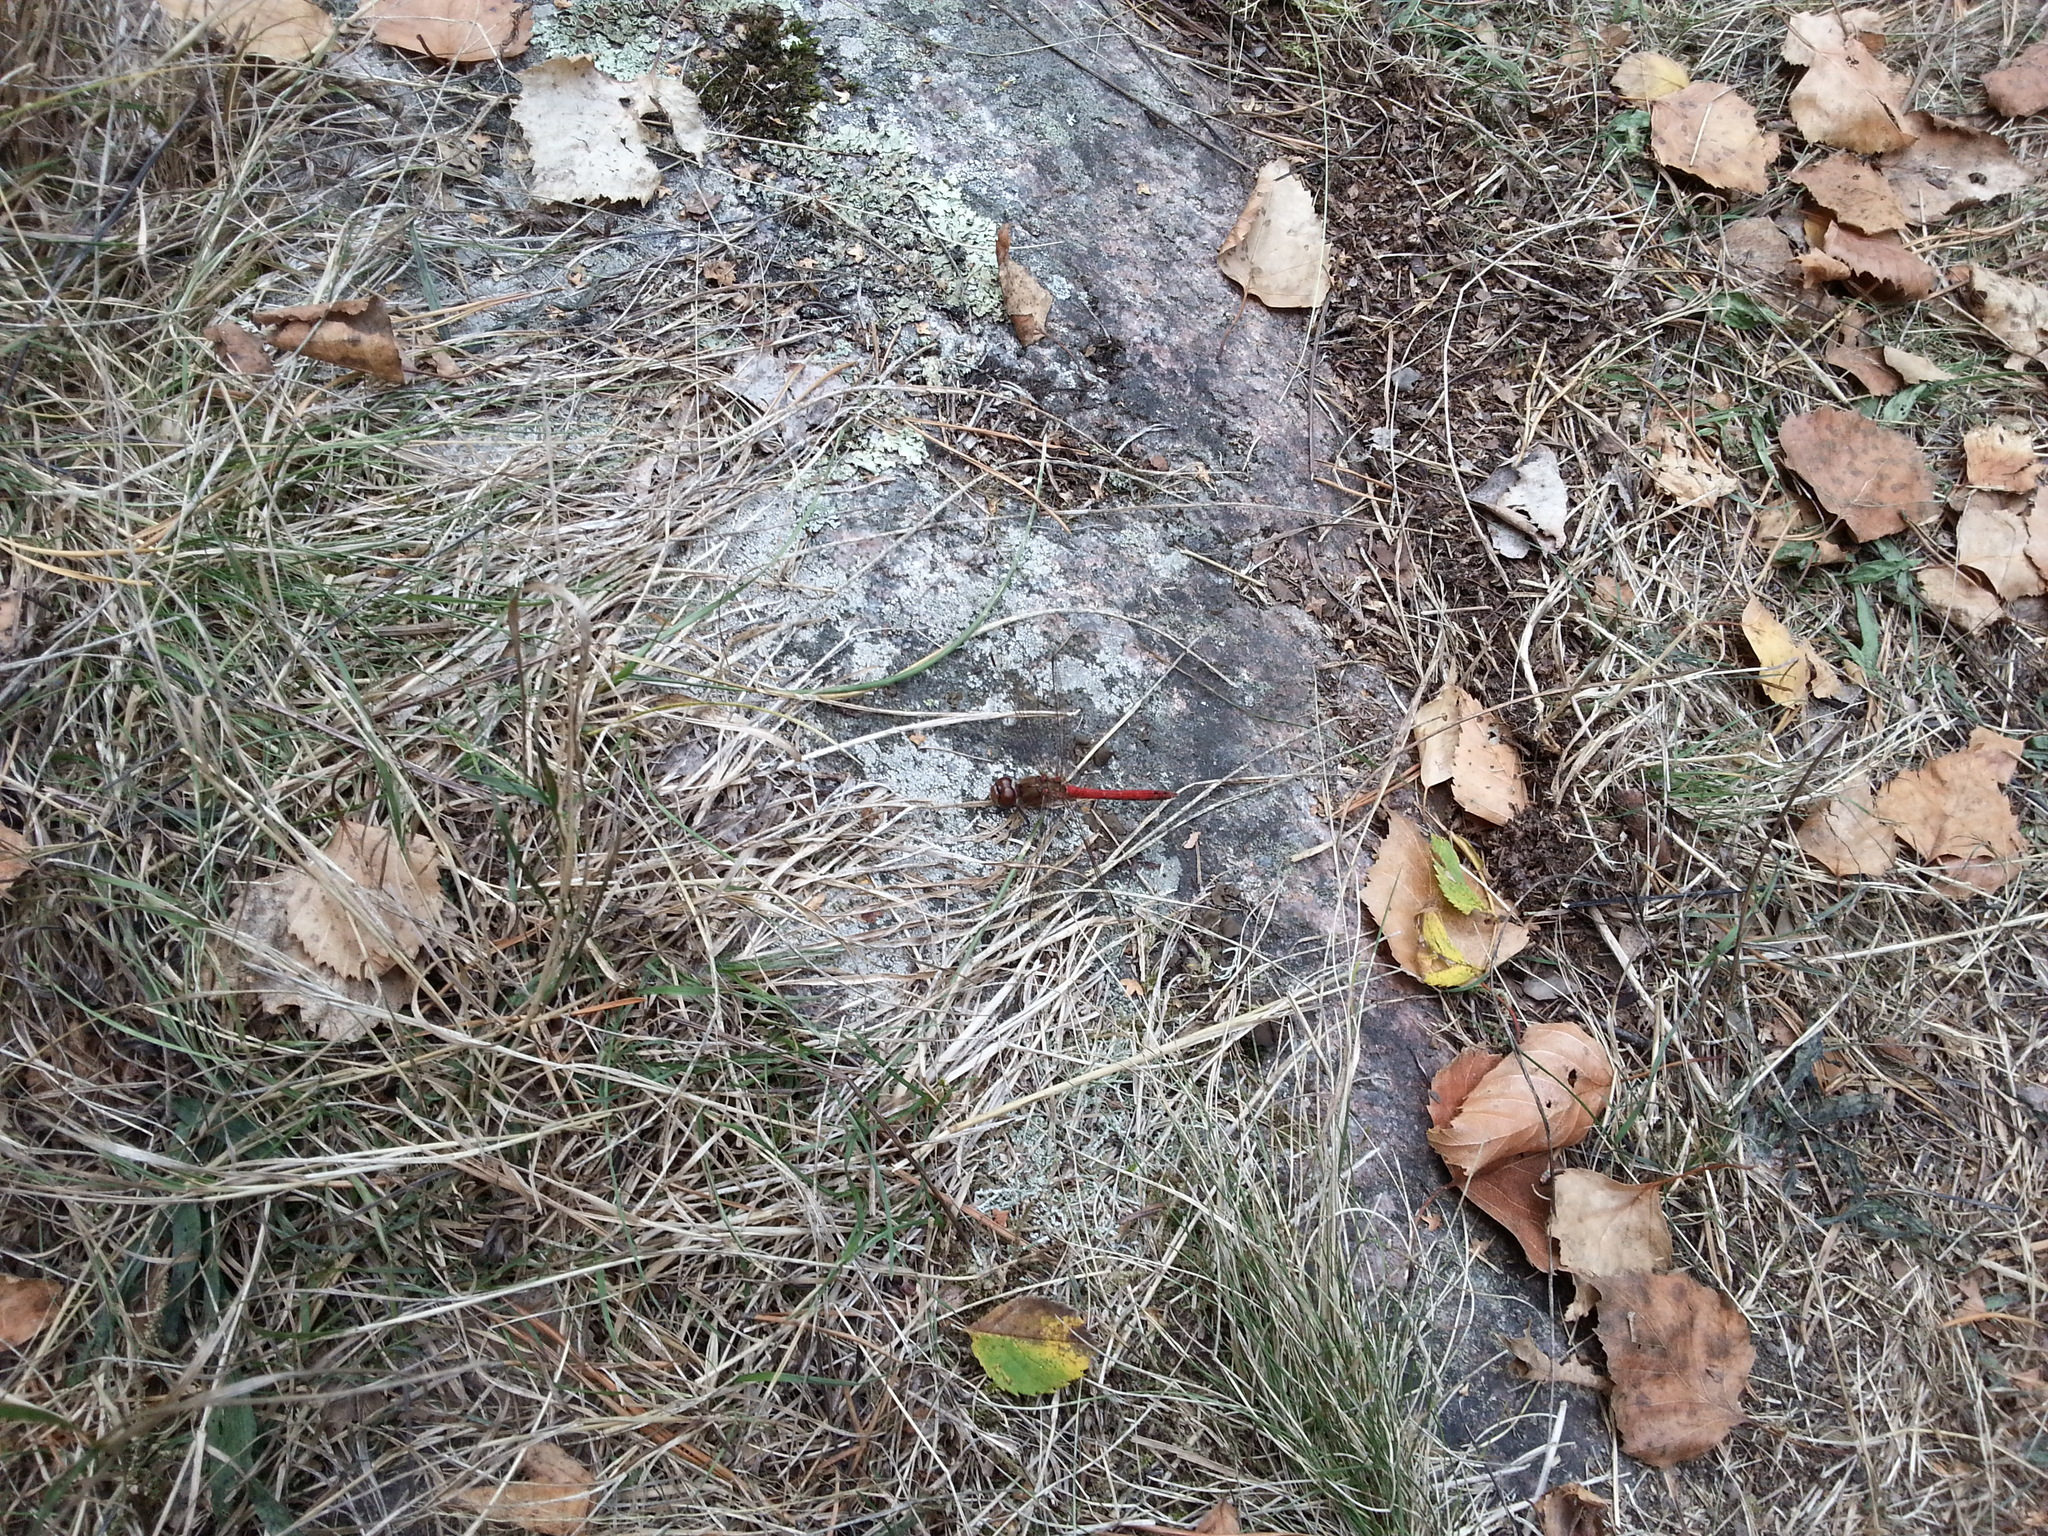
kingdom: Animalia
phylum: Arthropoda
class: Insecta
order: Odonata
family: Libellulidae
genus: Sympetrum
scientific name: Sympetrum sanguineum
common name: Ruddy darter
